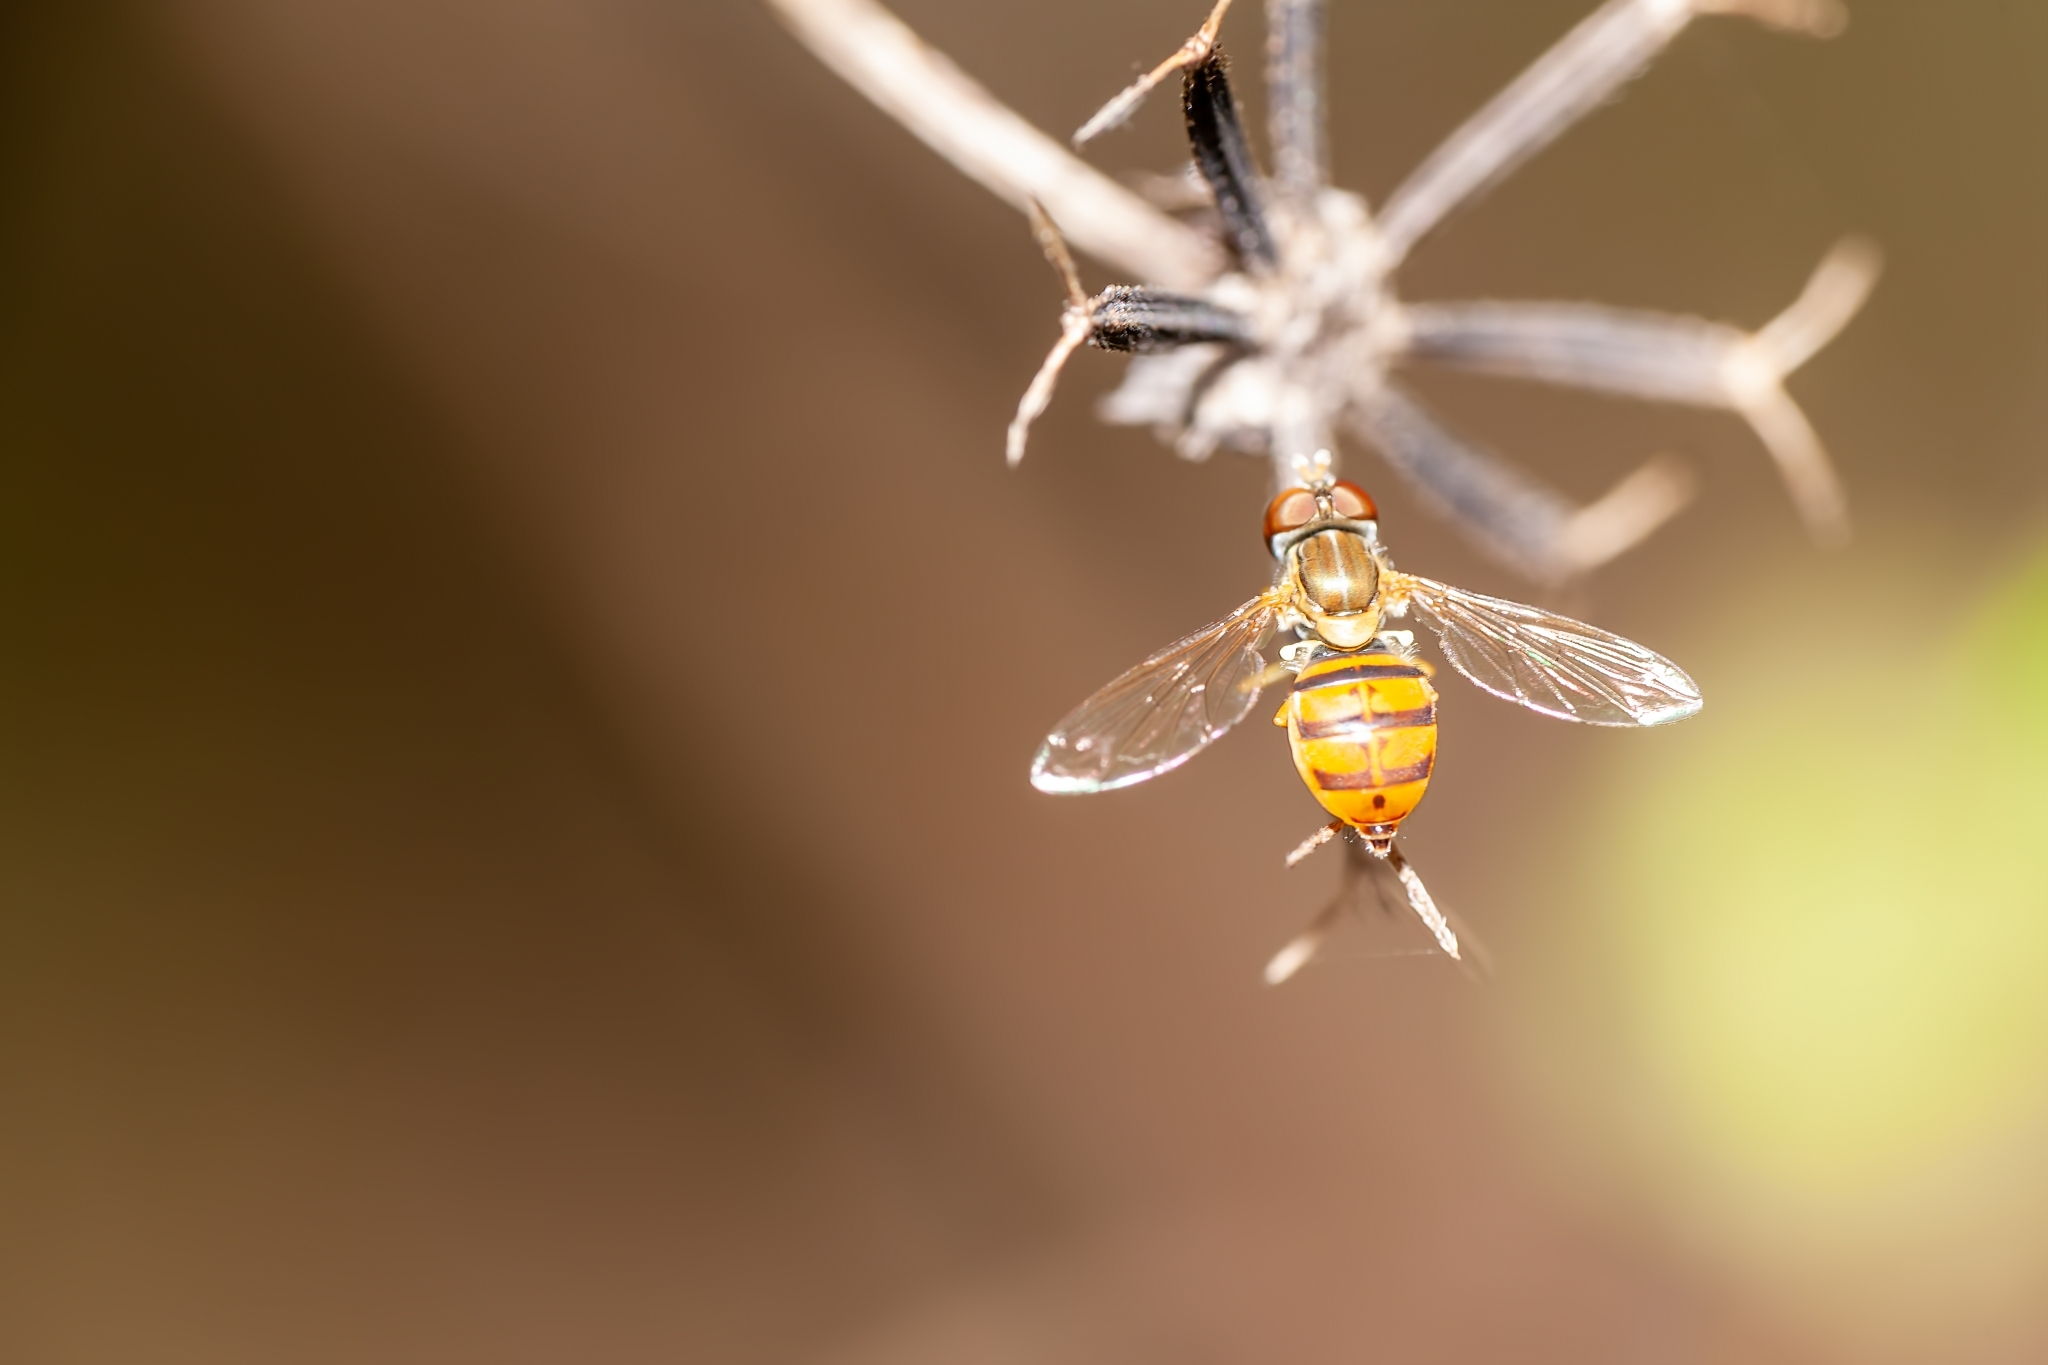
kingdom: Animalia
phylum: Arthropoda
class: Insecta
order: Diptera
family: Syrphidae
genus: Toxomerus
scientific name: Toxomerus corbis
